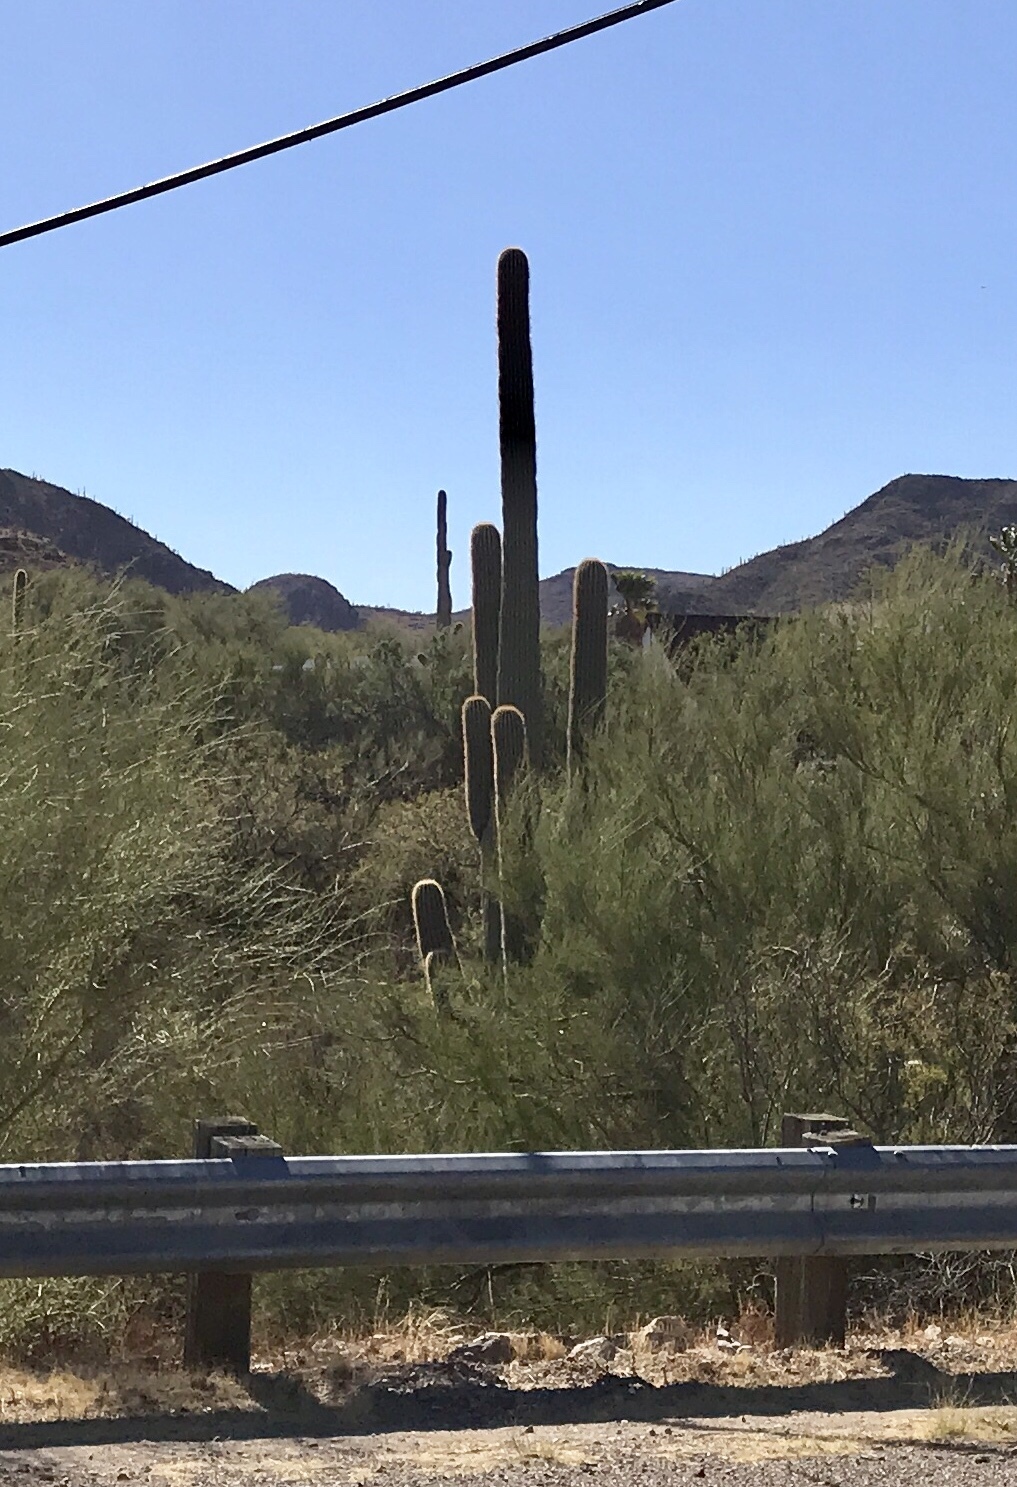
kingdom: Plantae
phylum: Tracheophyta
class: Magnoliopsida
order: Caryophyllales
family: Cactaceae
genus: Carnegiea
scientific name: Carnegiea gigantea
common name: Saguaro
